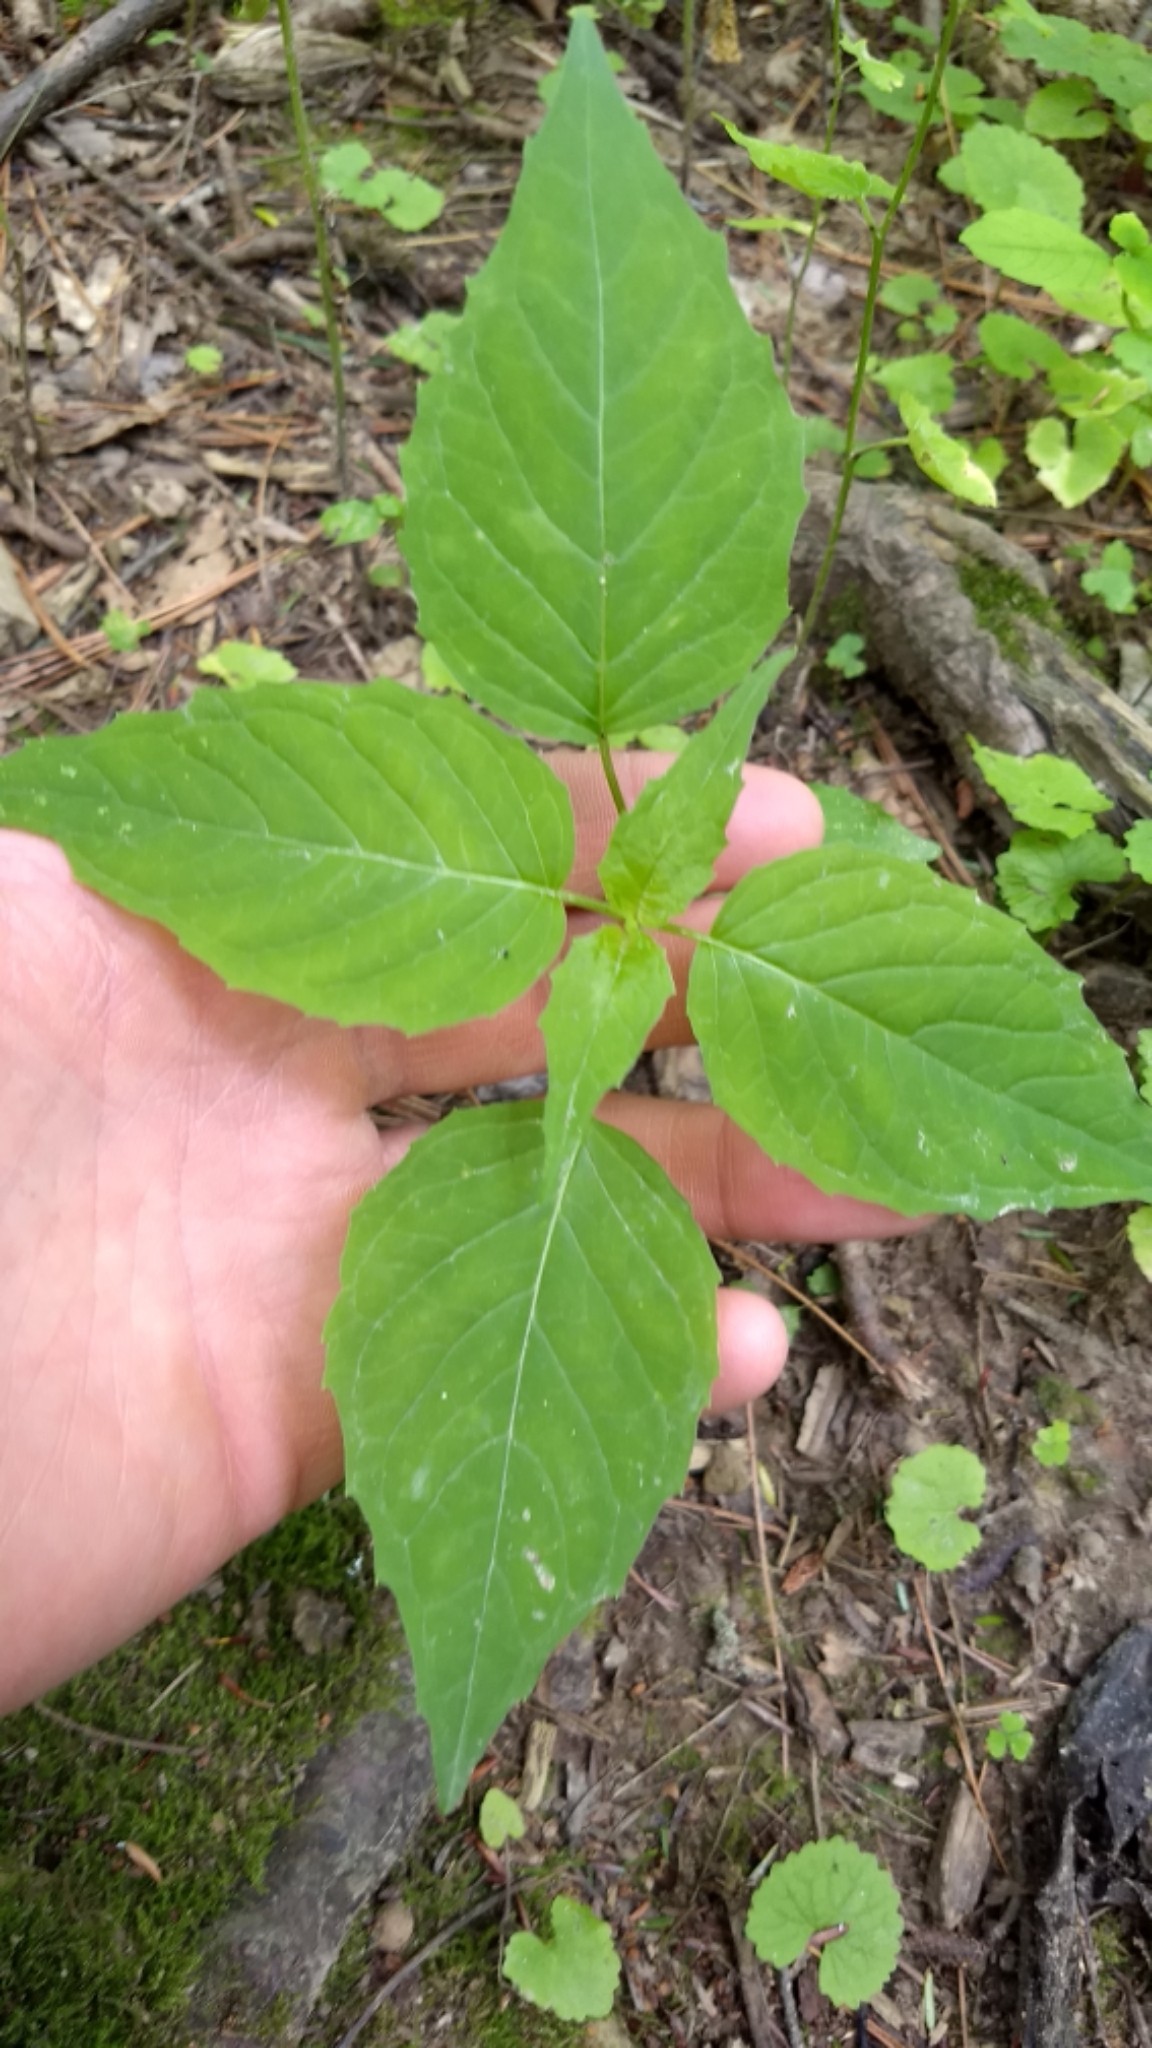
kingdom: Plantae
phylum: Tracheophyta
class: Magnoliopsida
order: Myrtales
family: Onagraceae
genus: Circaea
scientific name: Circaea canadensis
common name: Broad-leaved enchanter's nightshade
